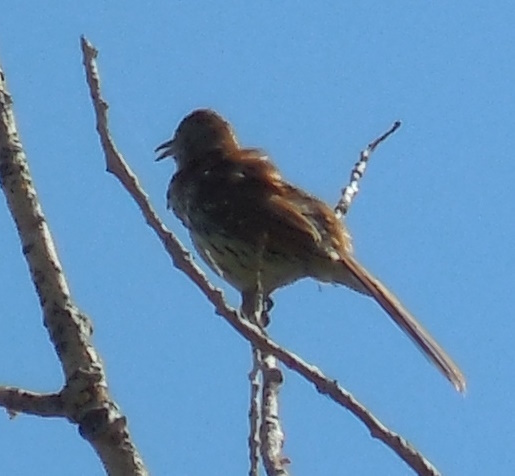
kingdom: Animalia
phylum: Chordata
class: Aves
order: Passeriformes
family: Mimidae
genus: Toxostoma
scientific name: Toxostoma rufum
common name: Brown thrasher
